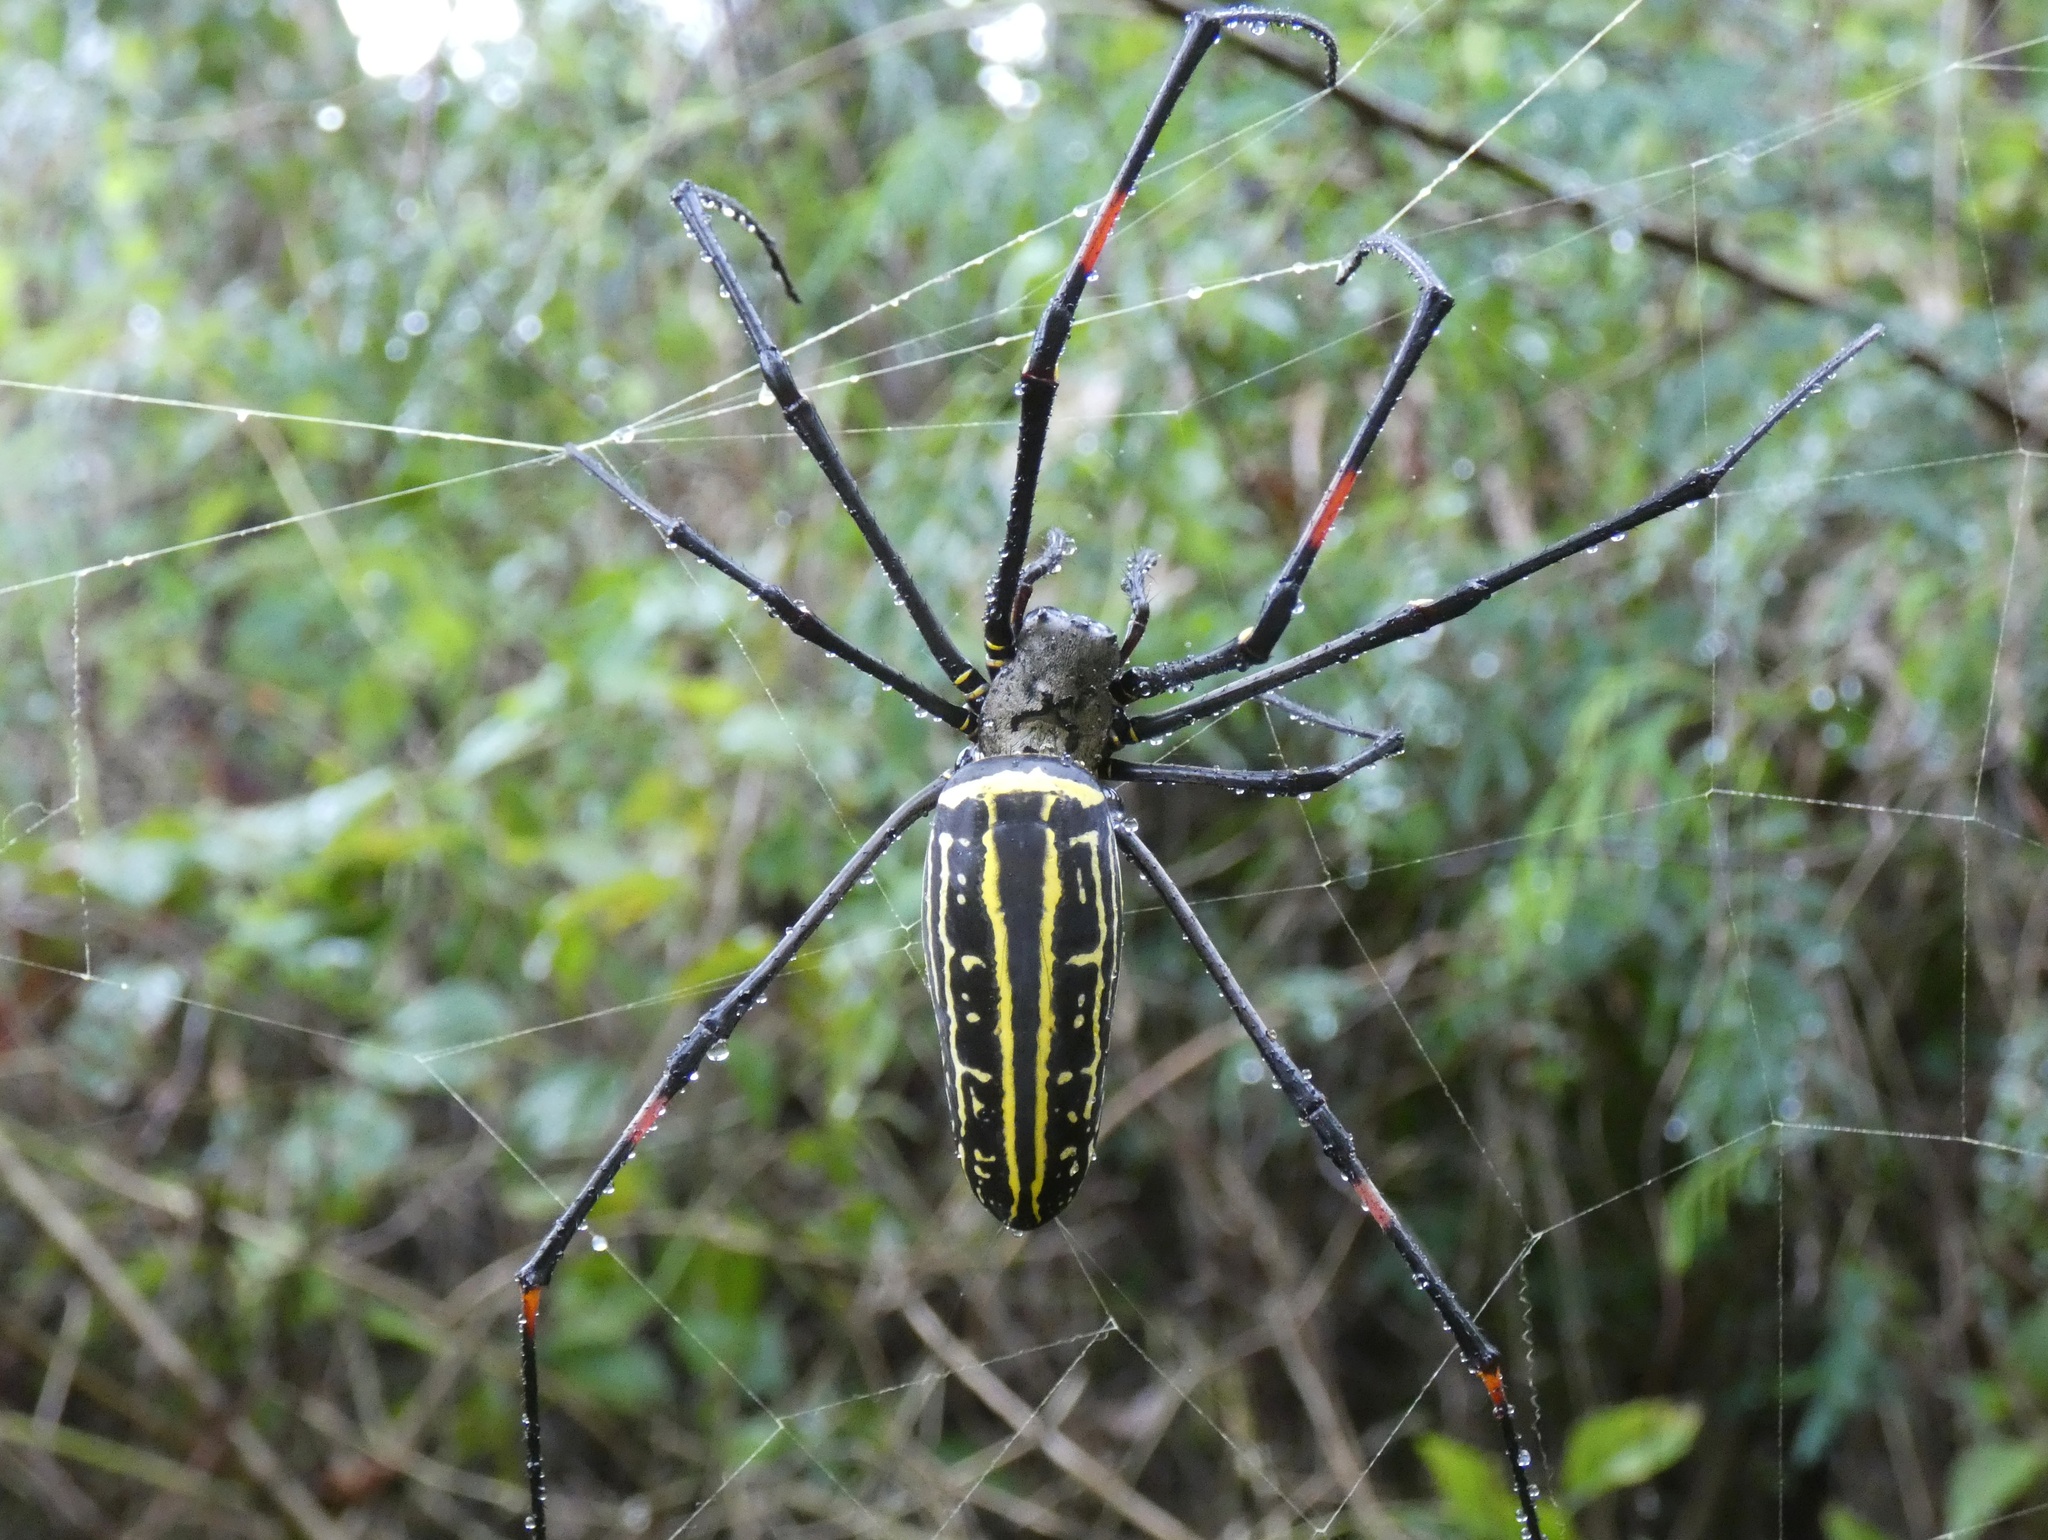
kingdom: Animalia
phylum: Arthropoda
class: Arachnida
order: Araneae
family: Araneidae
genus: Nephila
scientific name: Nephila pilipes
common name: Giant golden orb weaver
